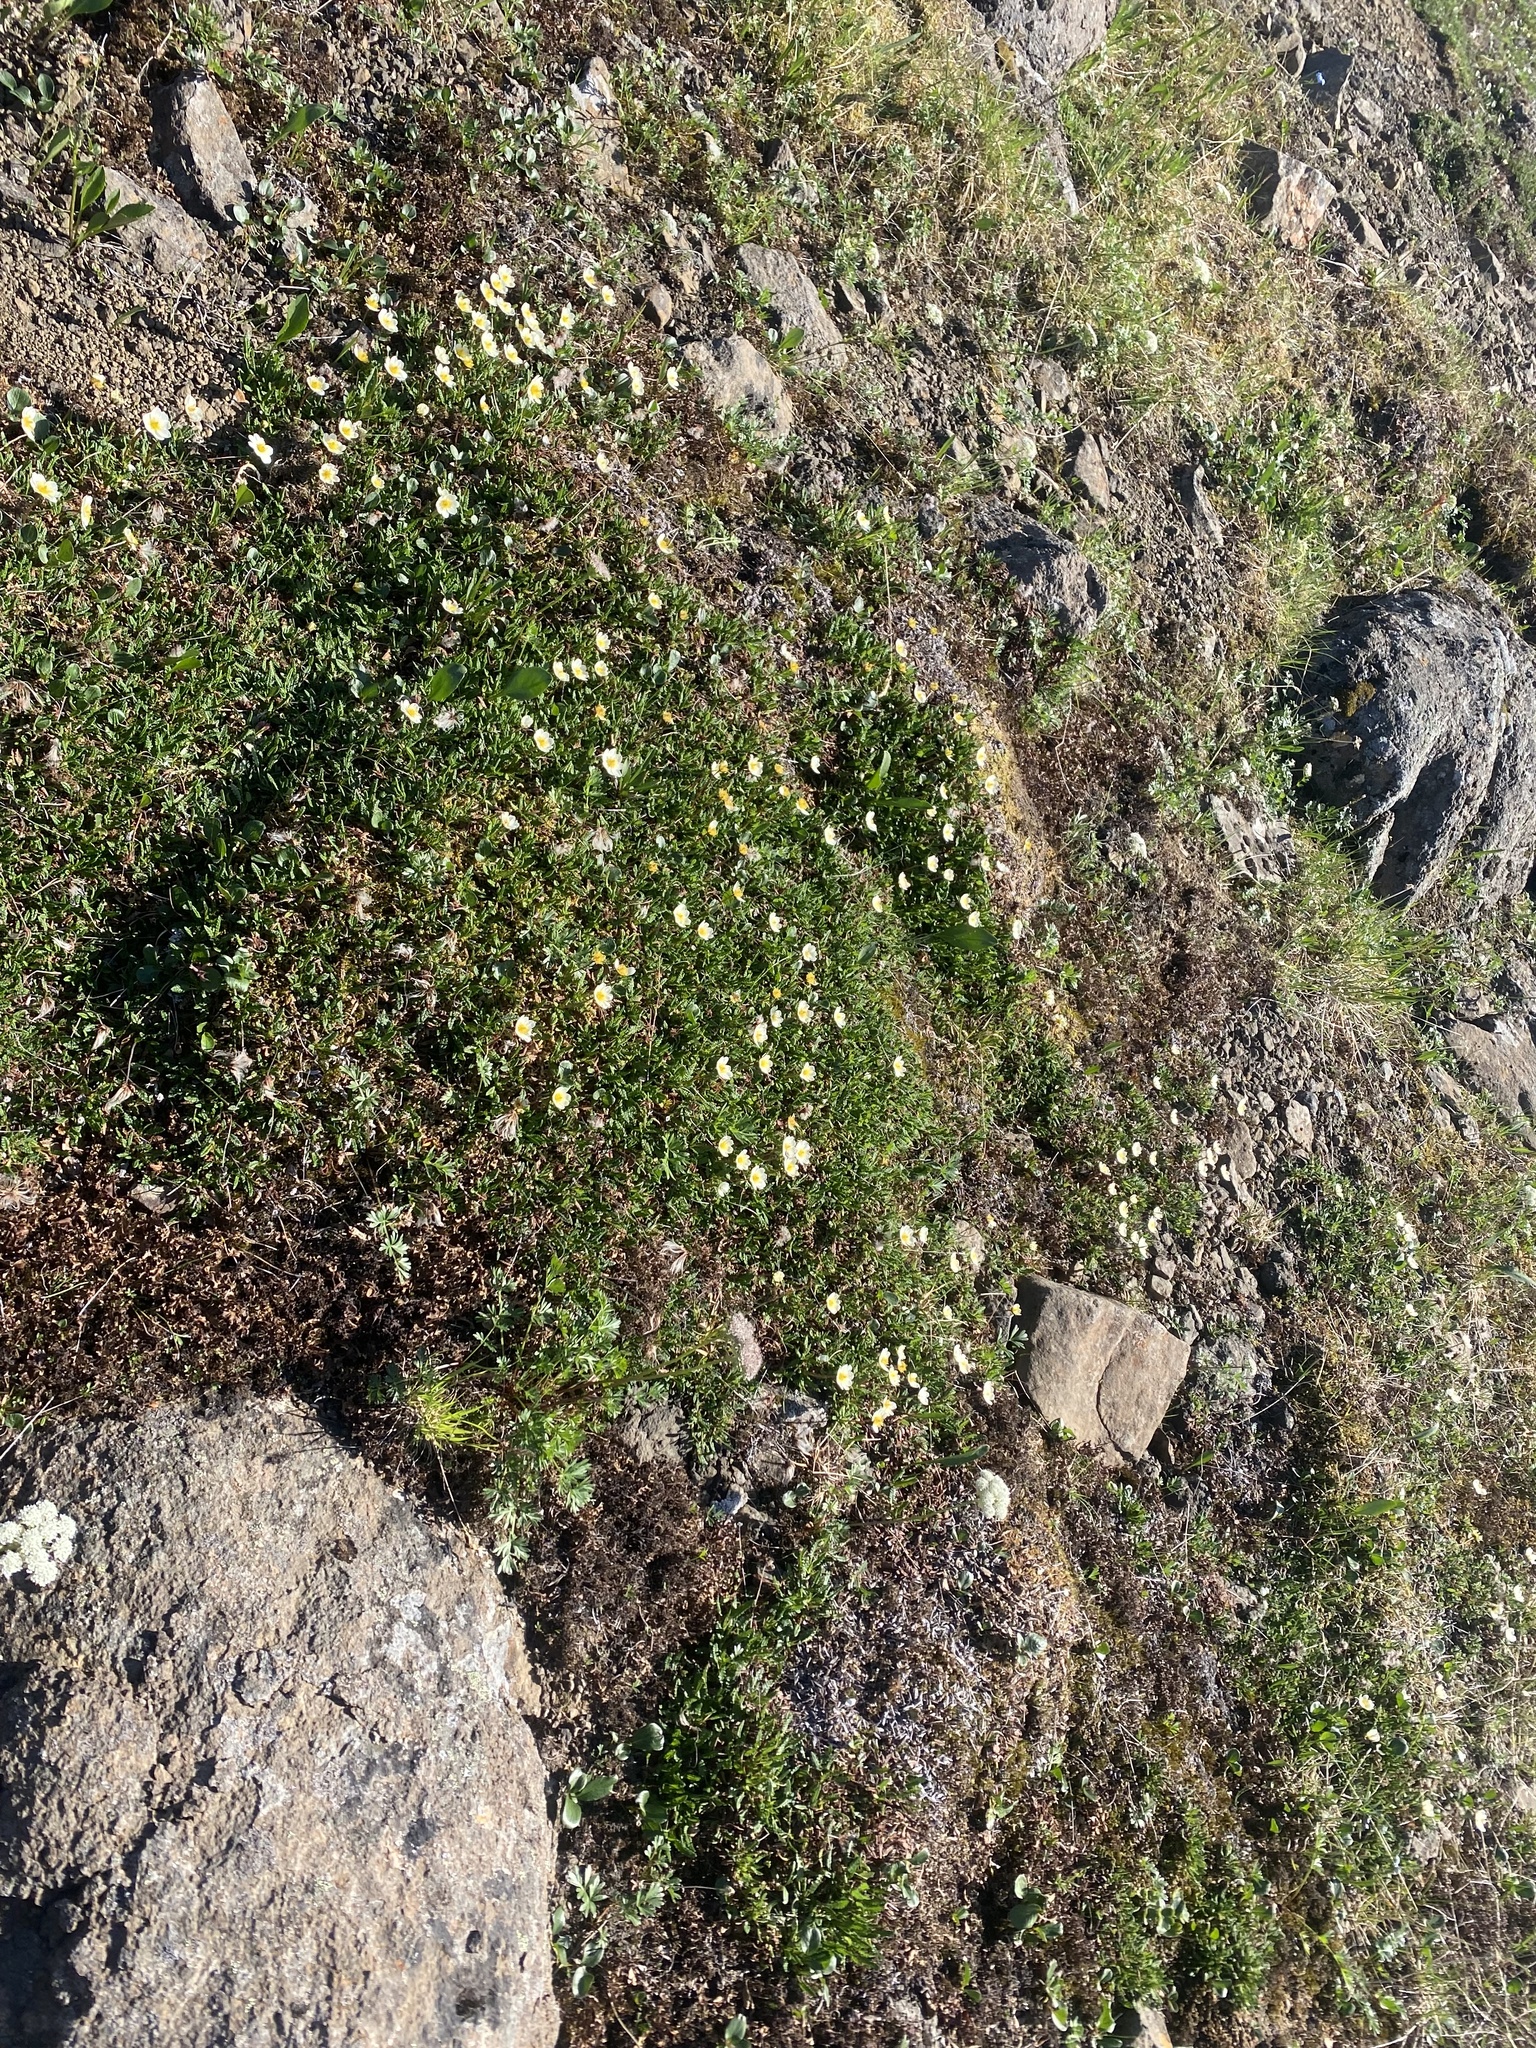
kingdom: Plantae
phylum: Tracheophyta
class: Magnoliopsida
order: Rosales
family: Rosaceae
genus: Dryas
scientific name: Dryas octopetala
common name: Eight-petal mountain-avens
